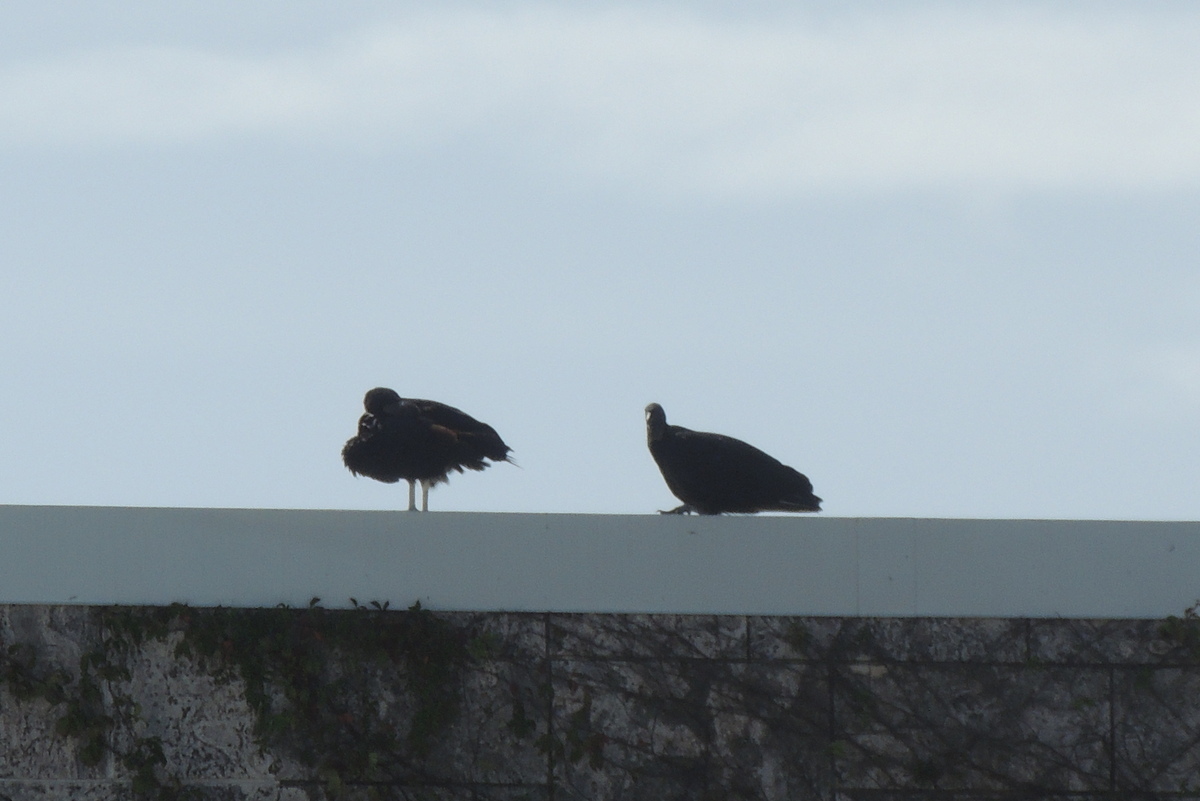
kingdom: Animalia
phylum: Chordata
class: Aves
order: Accipitriformes
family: Cathartidae
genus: Coragyps
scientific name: Coragyps atratus
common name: Black vulture
